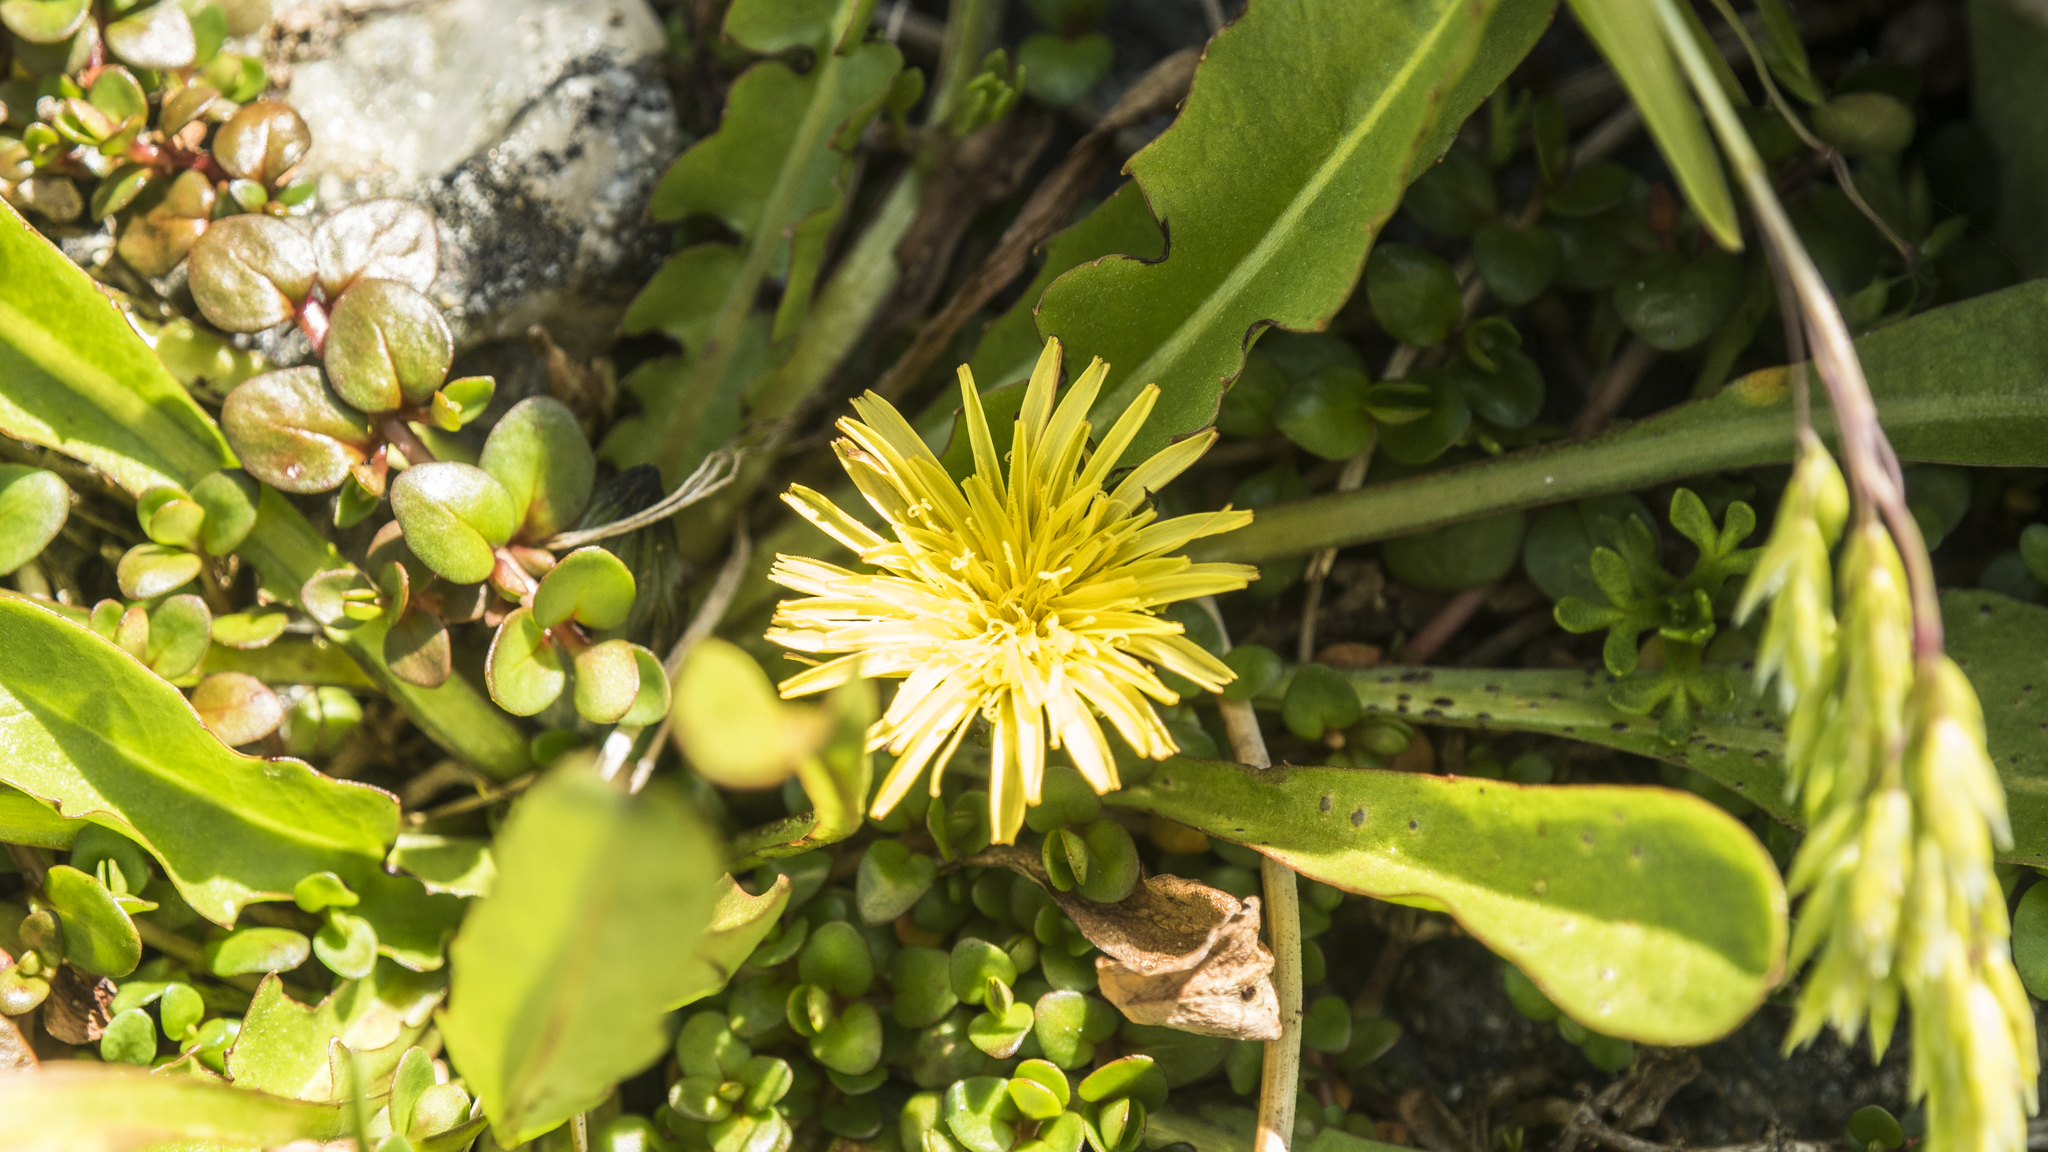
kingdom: Plantae
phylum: Tracheophyta
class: Magnoliopsida
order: Asterales
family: Asteraceae
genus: Taraxacum
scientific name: Taraxacum zealandicum
